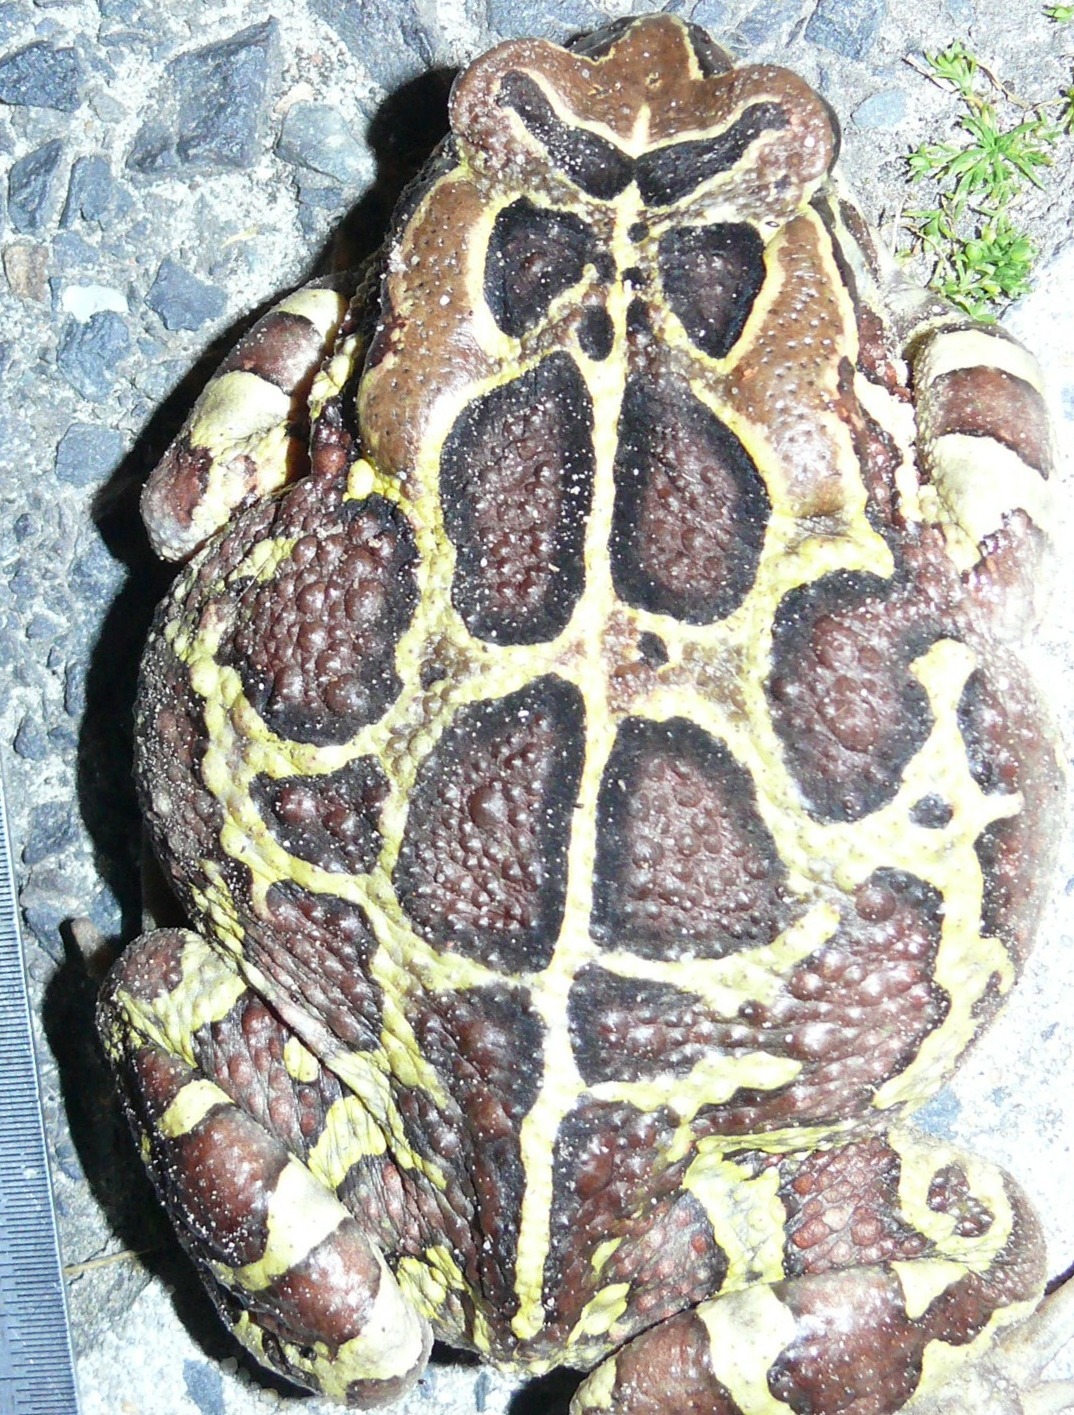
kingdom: Animalia
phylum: Chordata
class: Amphibia
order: Anura
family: Bufonidae
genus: Sclerophrys
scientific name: Sclerophrys pantherina
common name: Panther toad
